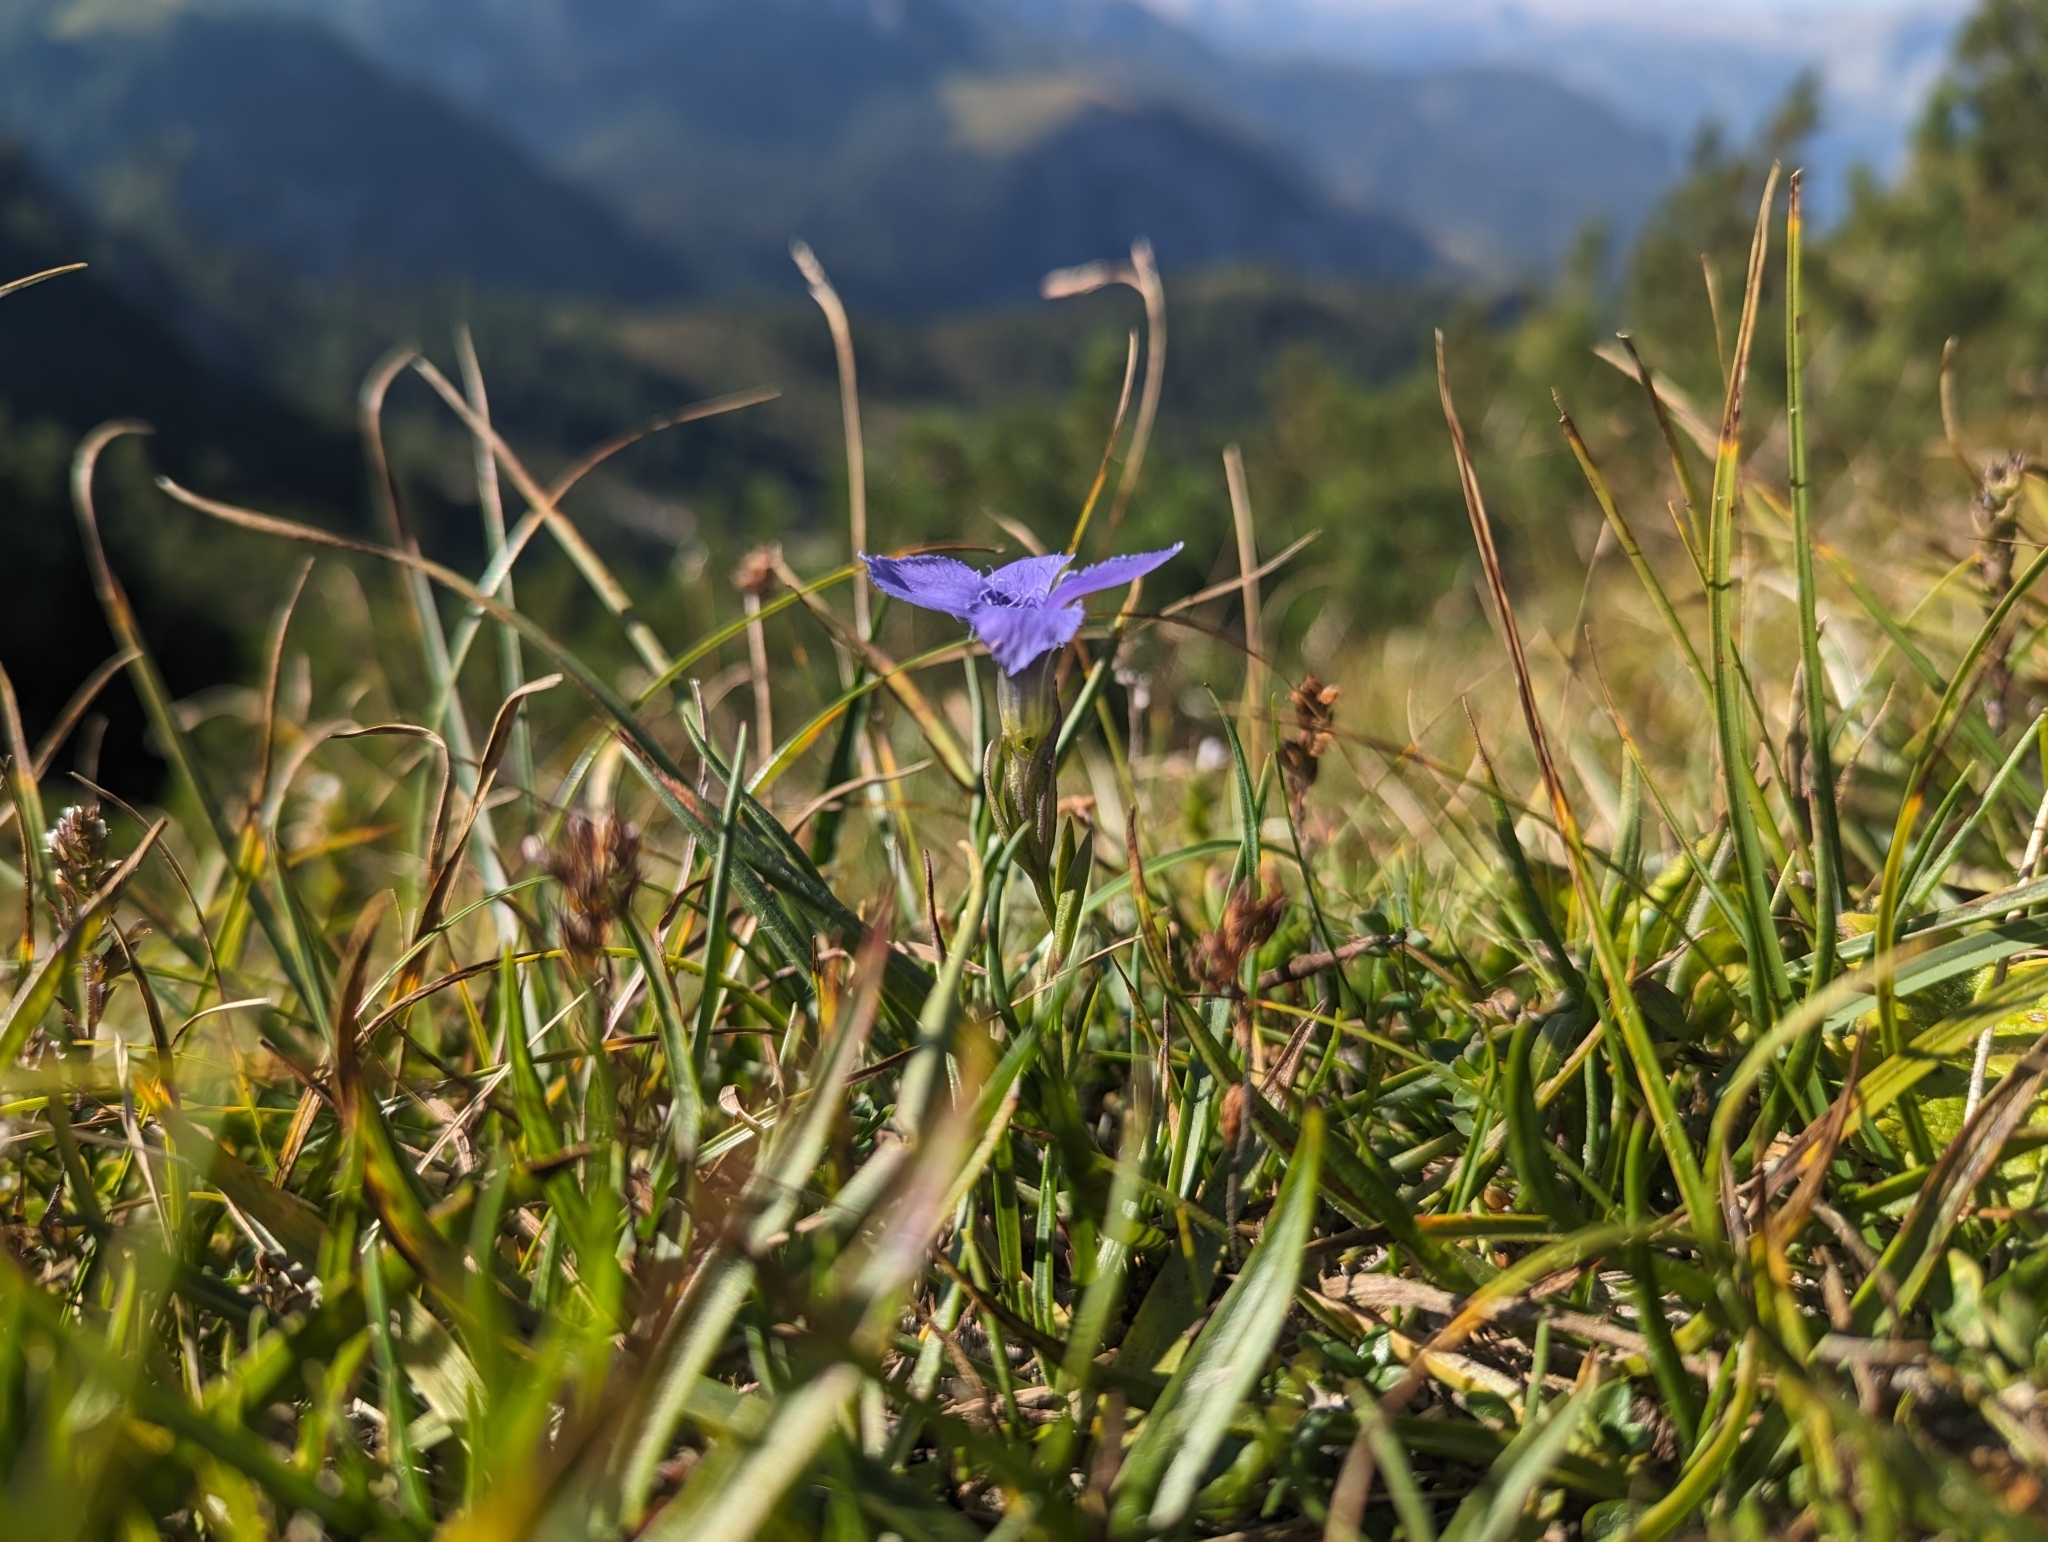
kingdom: Plantae
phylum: Tracheophyta
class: Magnoliopsida
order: Gentianales
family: Gentianaceae
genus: Gentianopsis
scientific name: Gentianopsis ciliata
